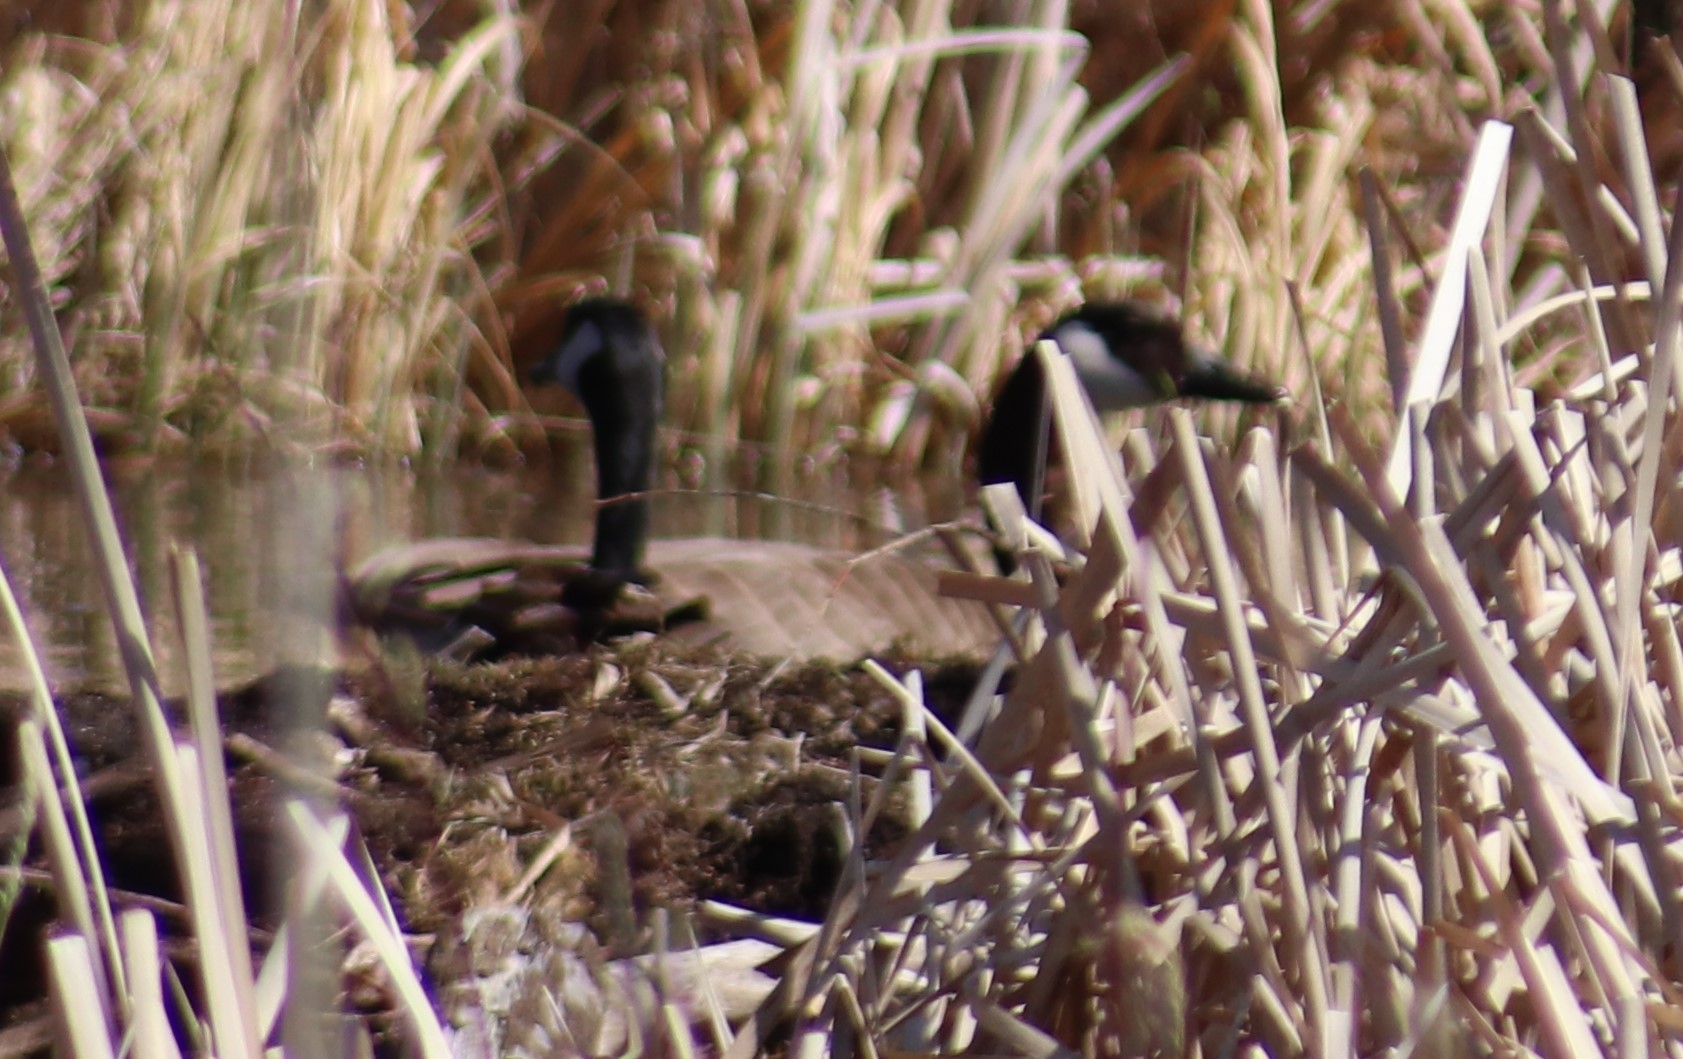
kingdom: Animalia
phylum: Chordata
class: Aves
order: Anseriformes
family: Anatidae
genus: Branta
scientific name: Branta canadensis
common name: Canada goose
